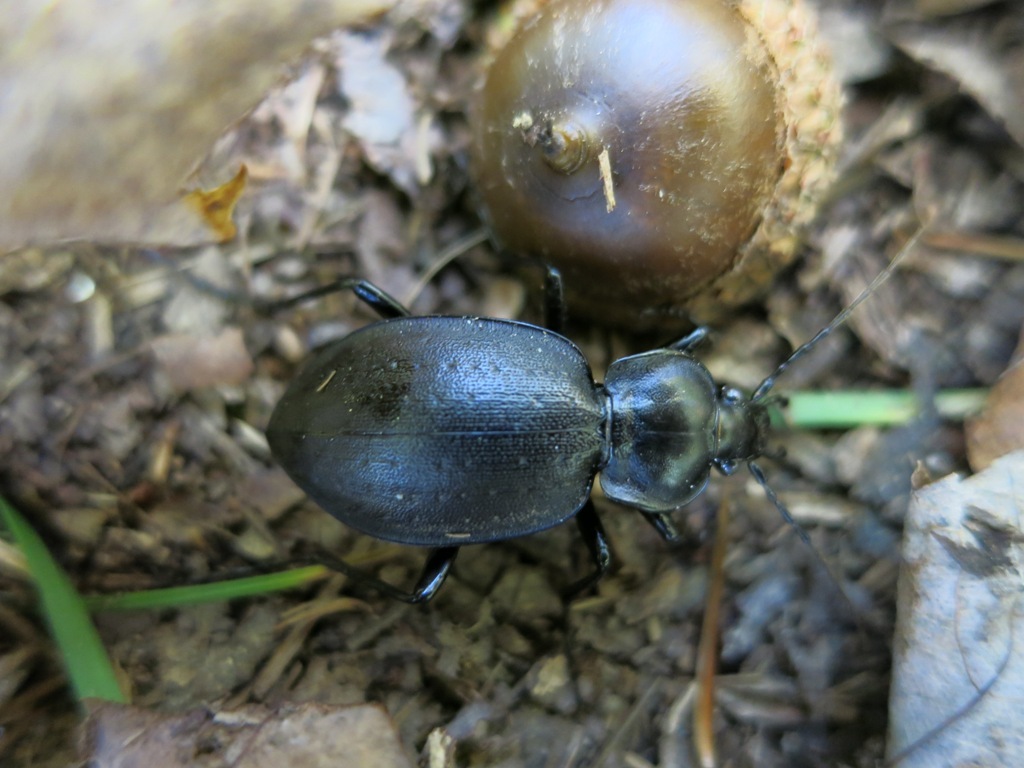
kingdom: Animalia
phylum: Arthropoda
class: Insecta
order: Coleoptera
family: Carabidae
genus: Carabus
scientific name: Carabus sylvosus
